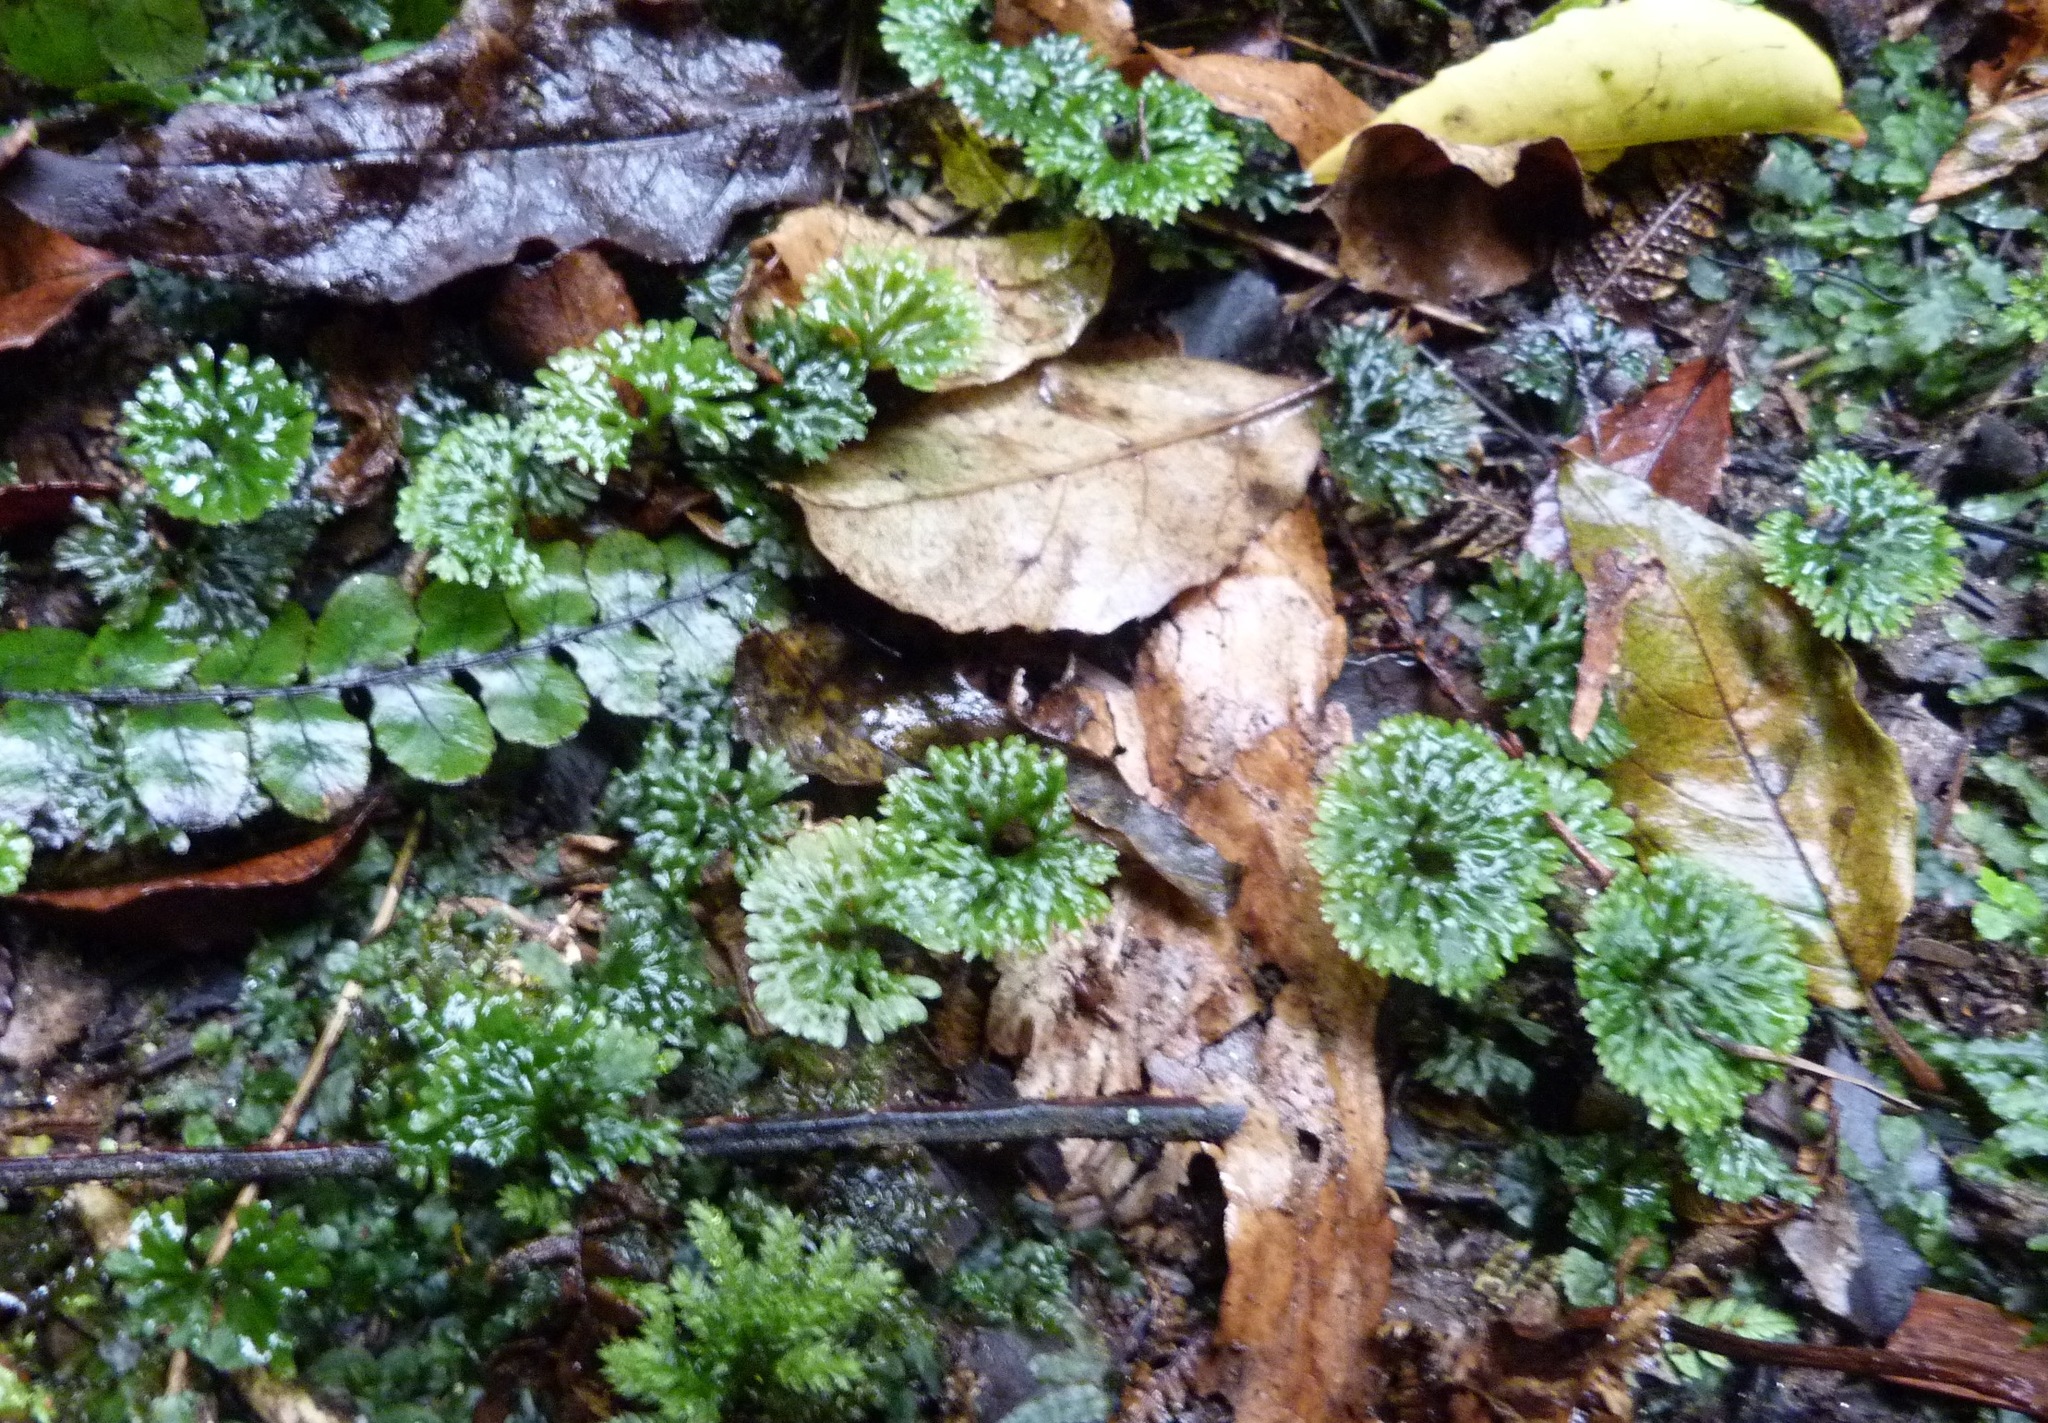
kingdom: Plantae
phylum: Marchantiophyta
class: Jungermanniopsida
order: Pallaviciniales
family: Hymenophytaceae
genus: Hymenophyton
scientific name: Hymenophyton flabellatum
